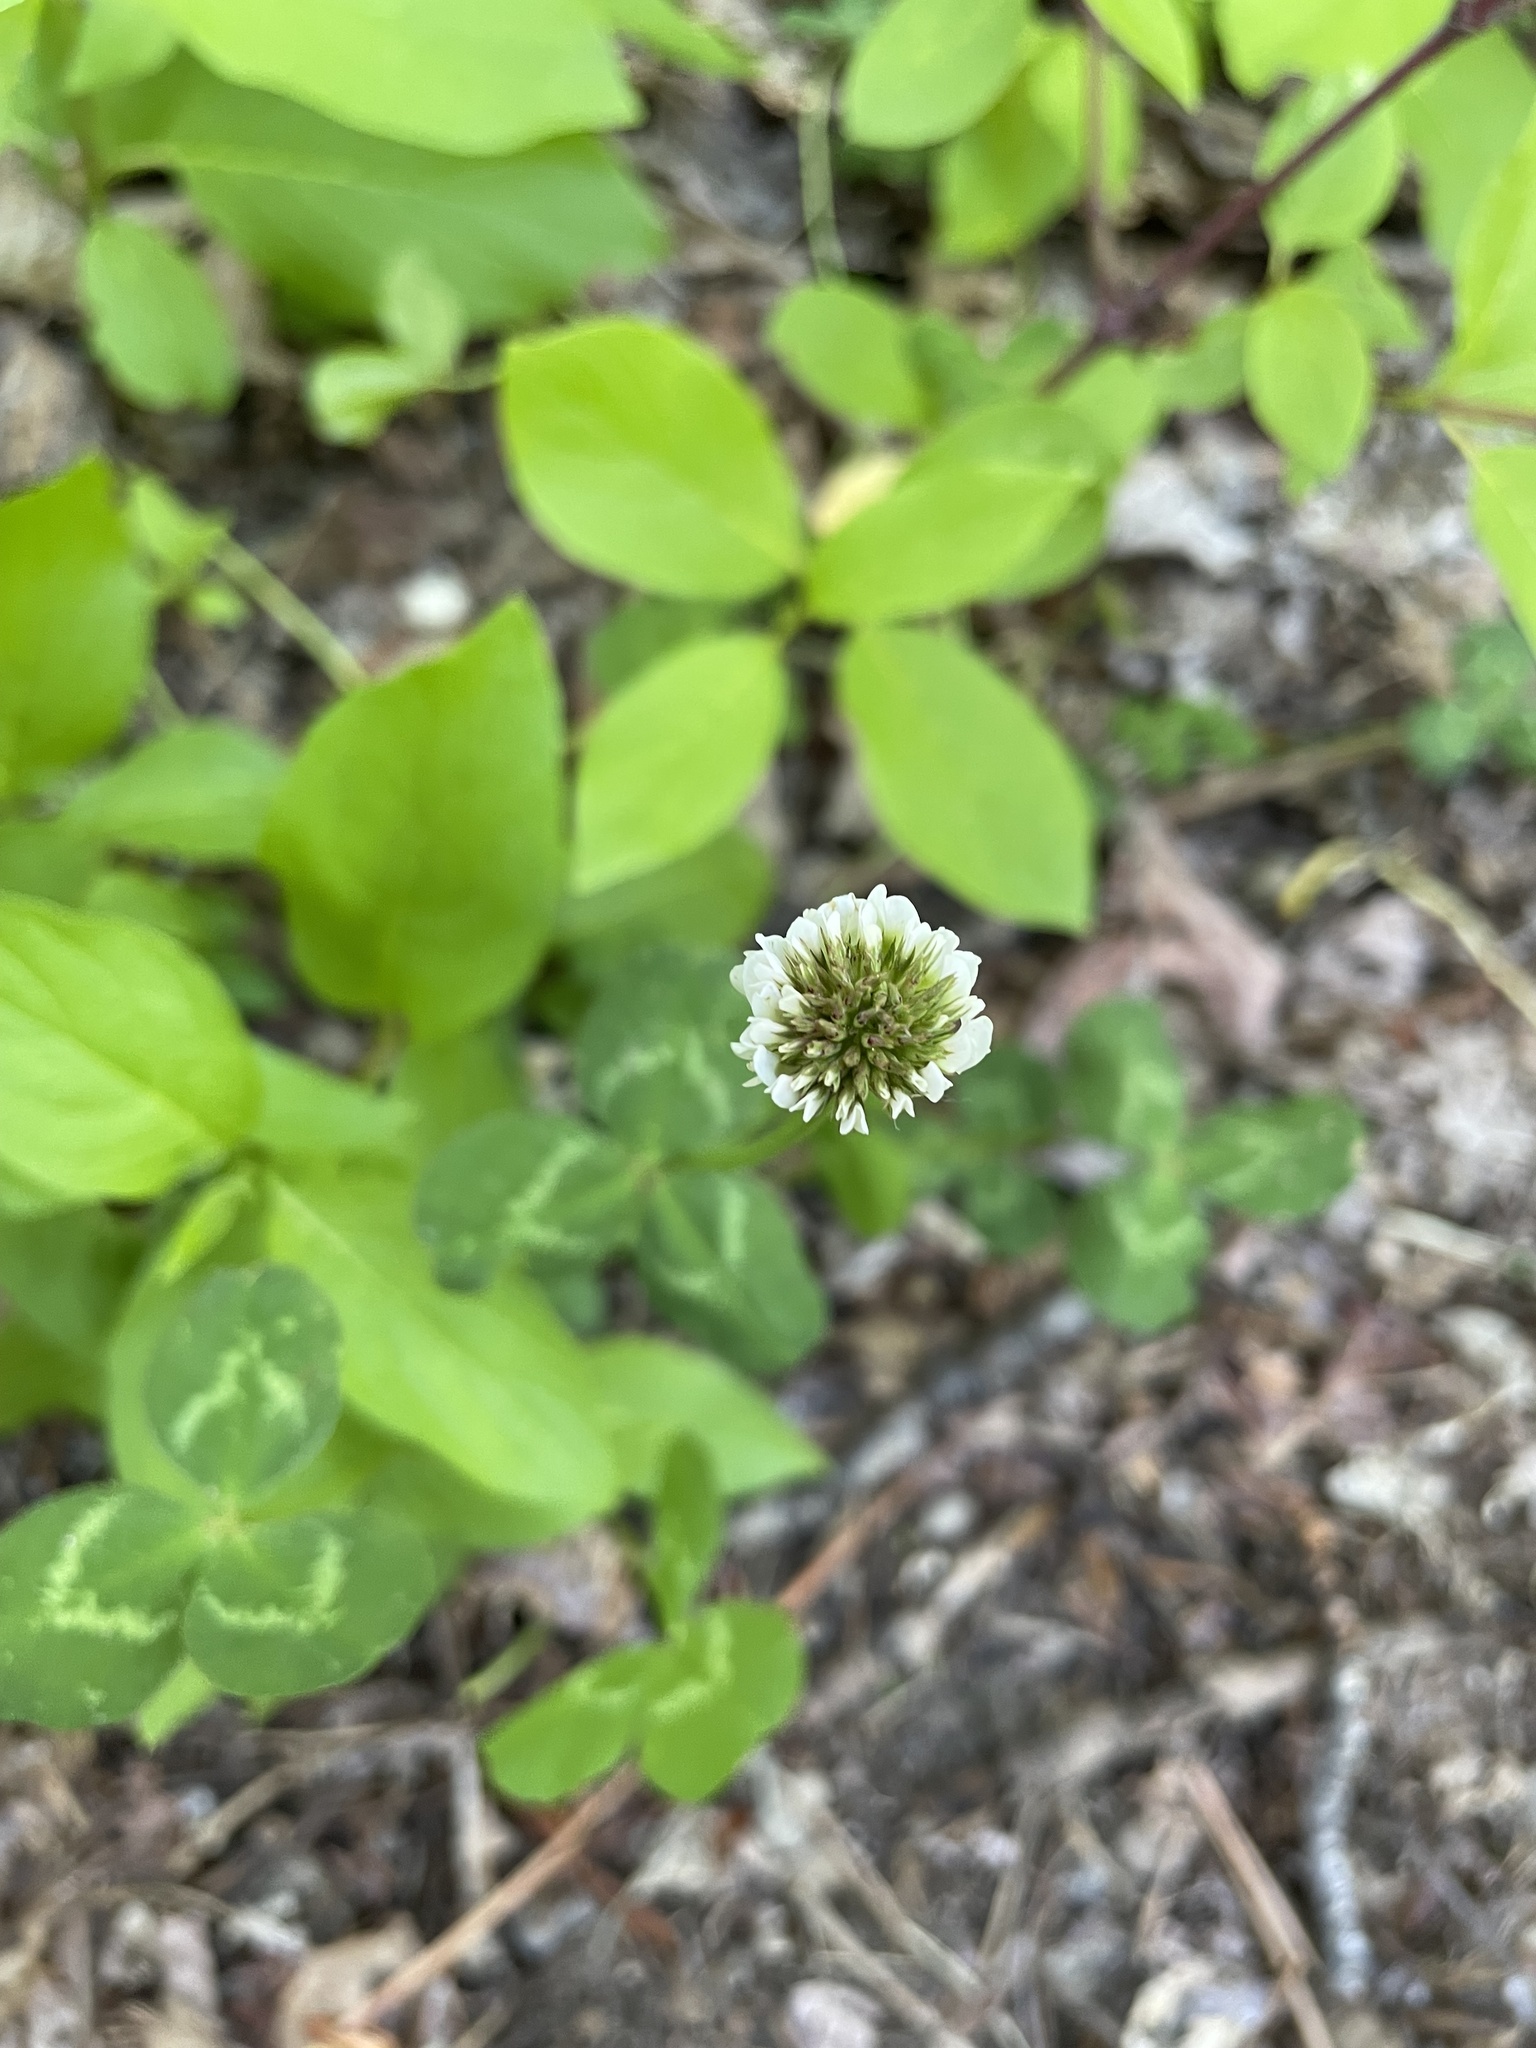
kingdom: Plantae
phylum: Tracheophyta
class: Magnoliopsida
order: Fabales
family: Fabaceae
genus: Trifolium
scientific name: Trifolium repens
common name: White clover
